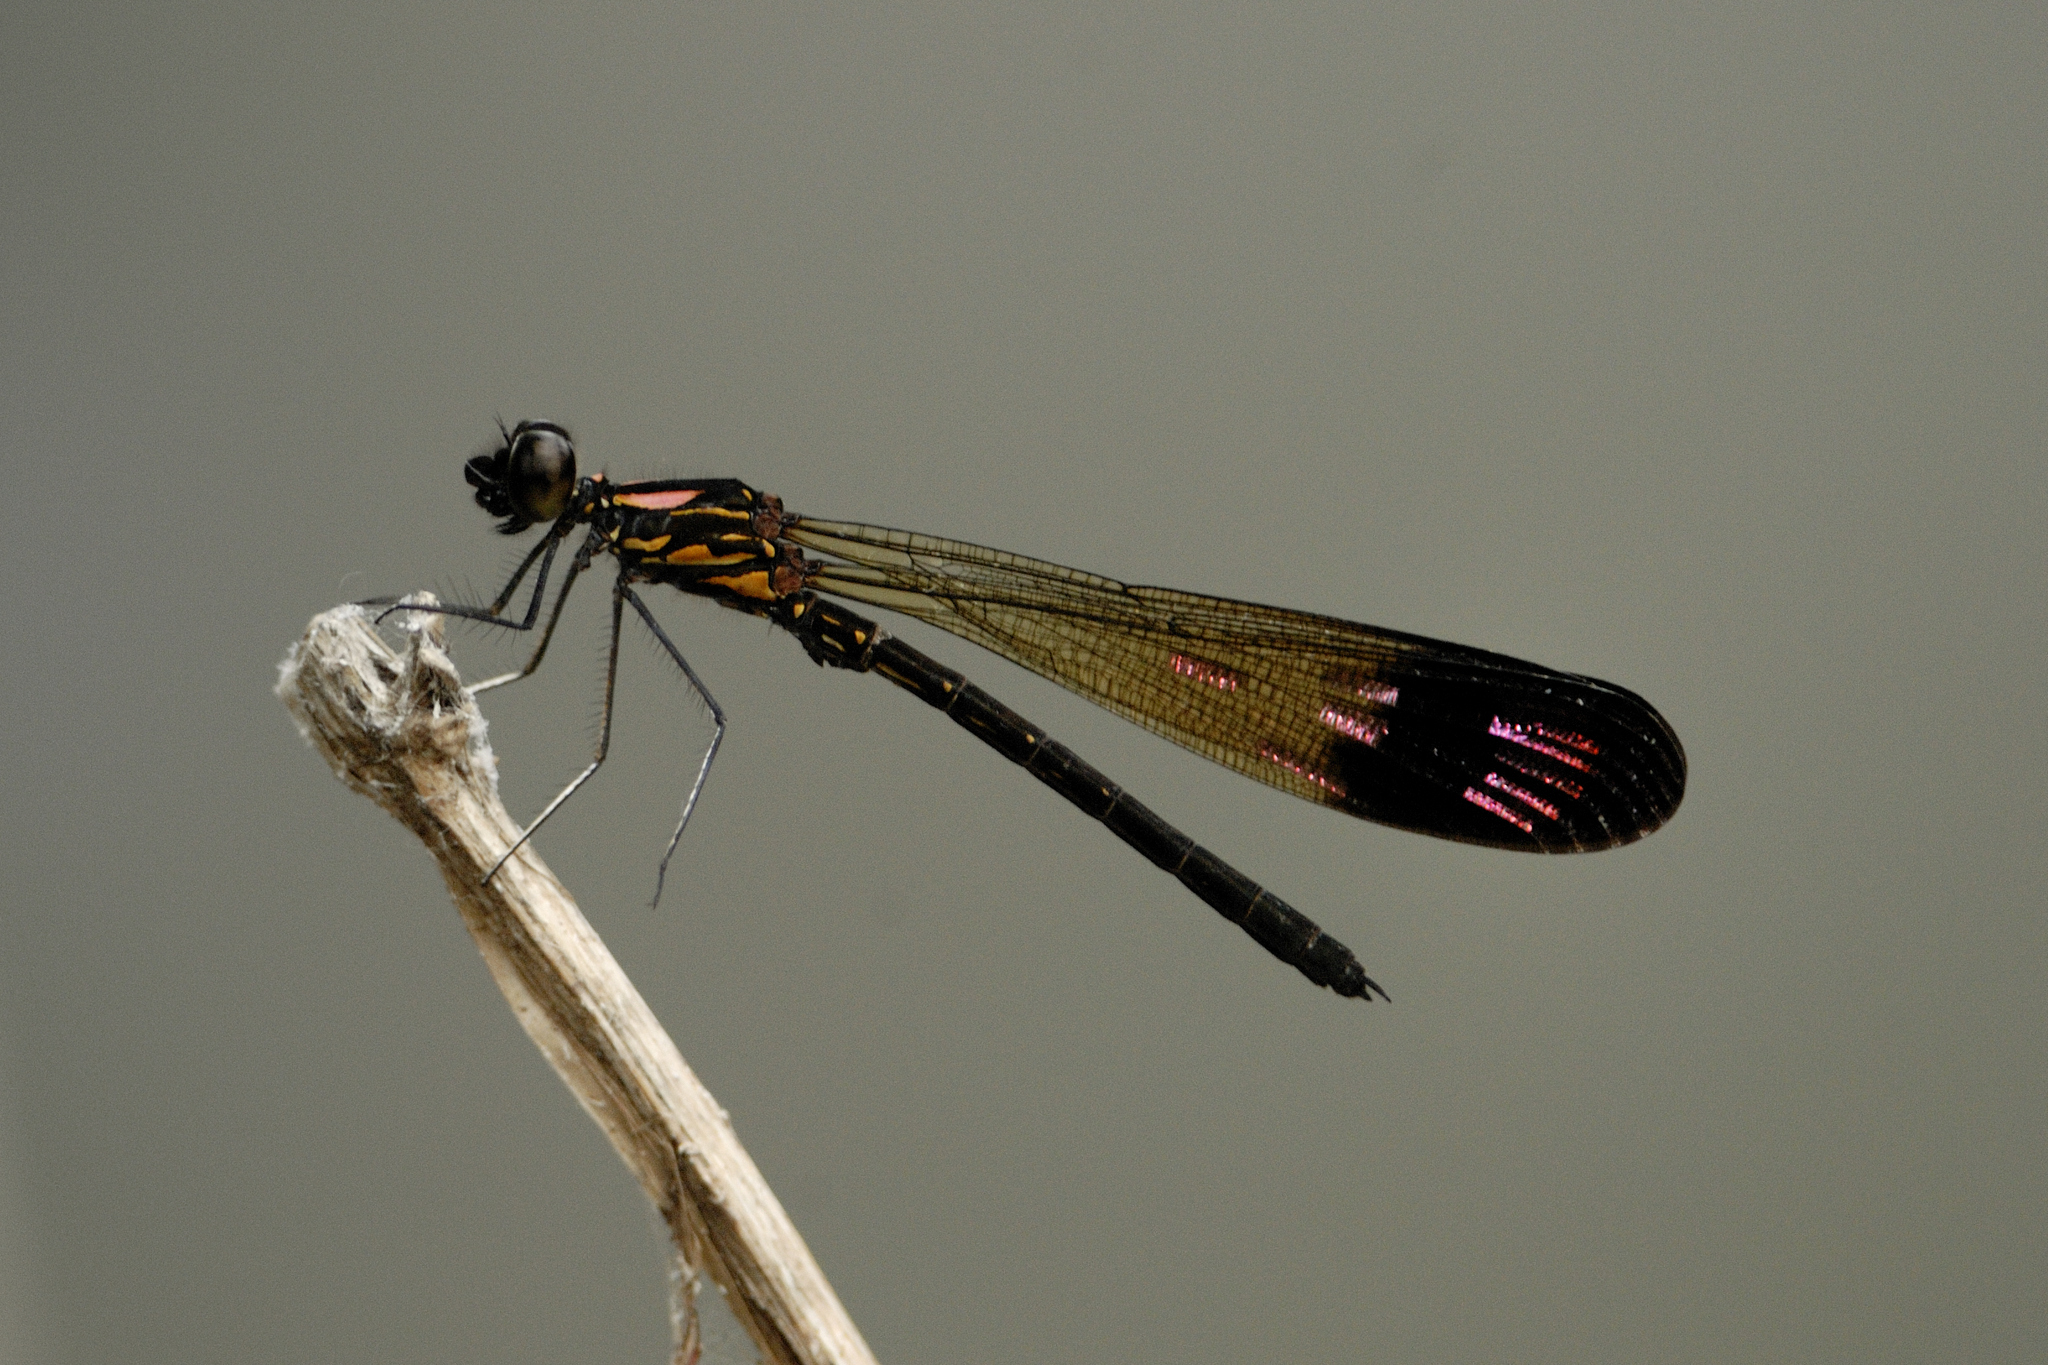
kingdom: Animalia
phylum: Arthropoda
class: Insecta
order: Odonata
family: Chlorocyphidae
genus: Heliocypha
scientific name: Heliocypha bisignata
